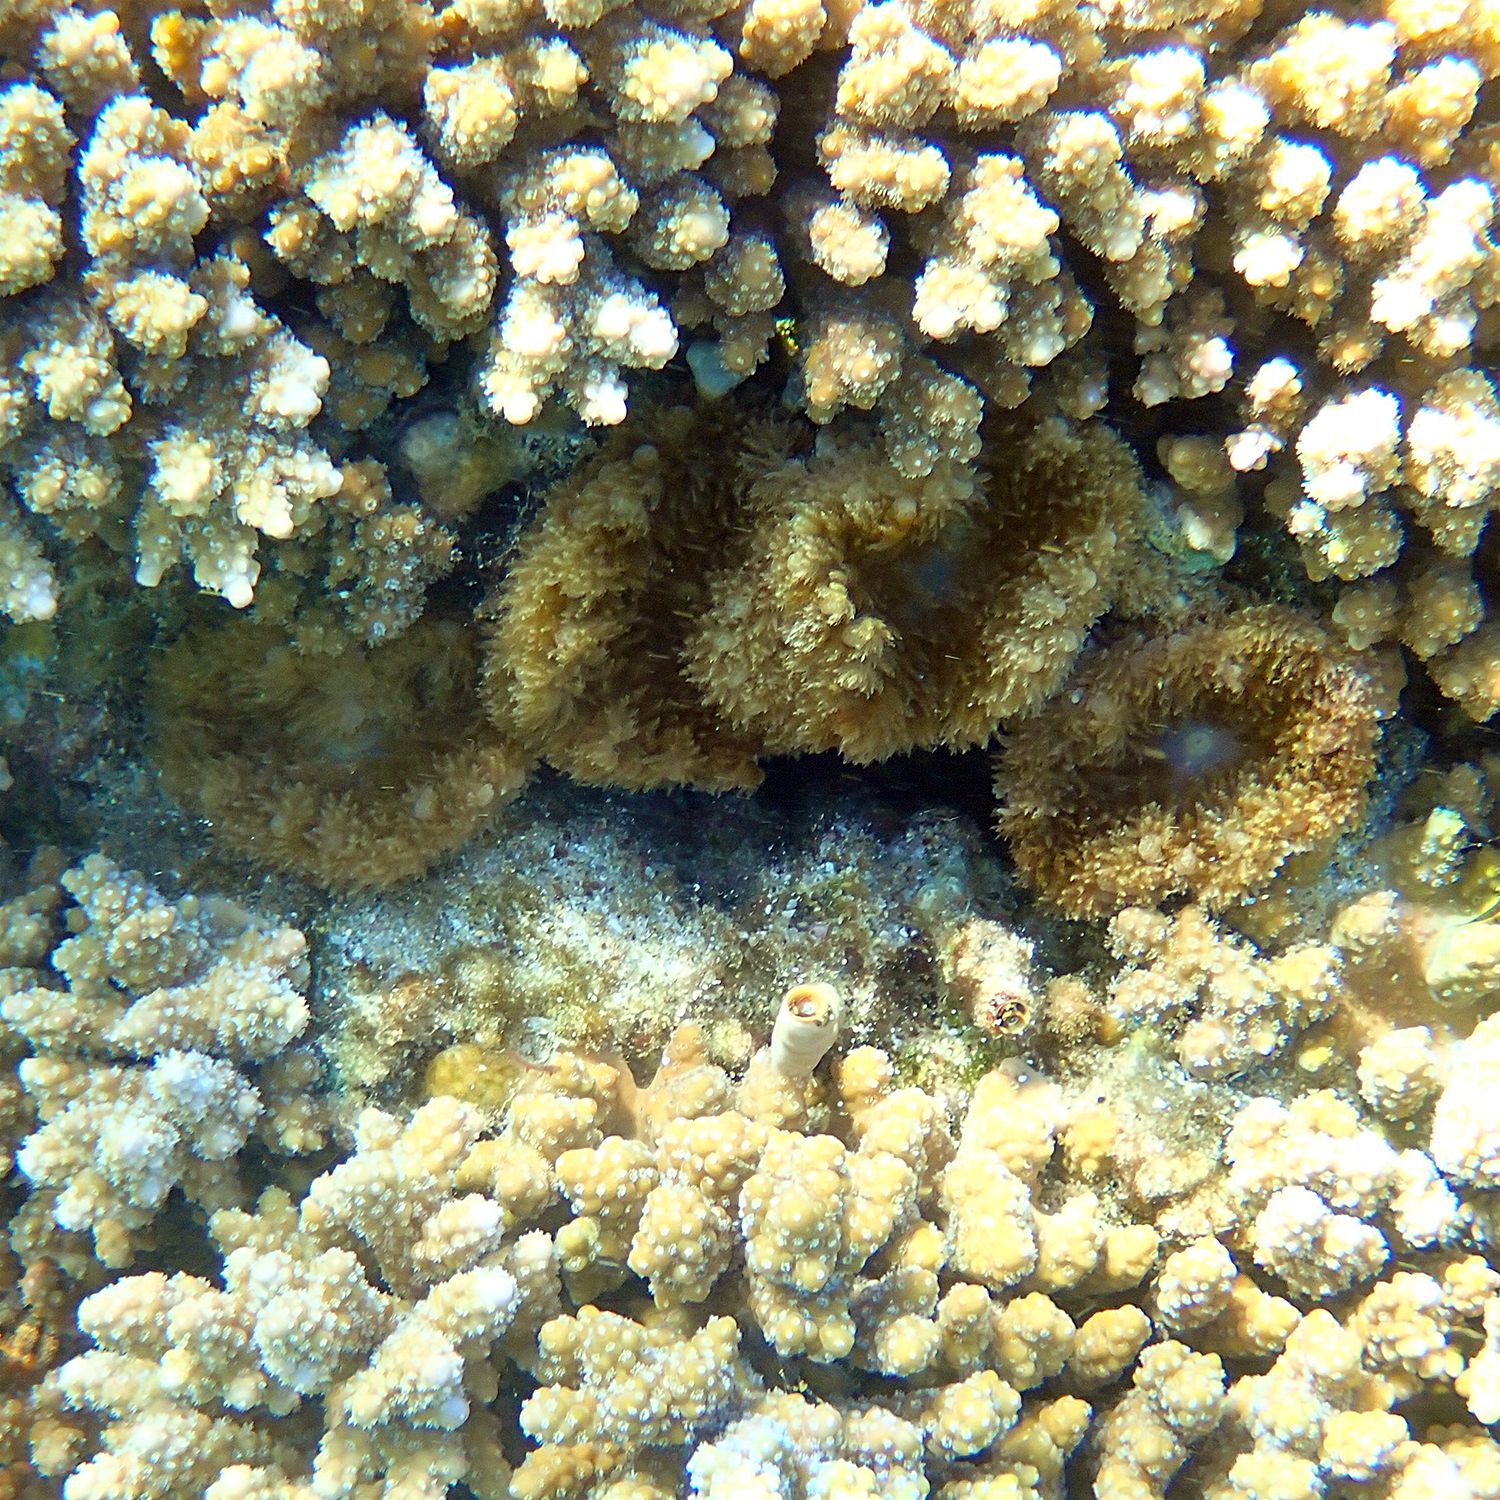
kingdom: Animalia
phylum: Cnidaria
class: Anthozoa
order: Actiniaria
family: Thalassianthidae
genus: Heterodactyla
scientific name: Heterodactyla hemprichii
